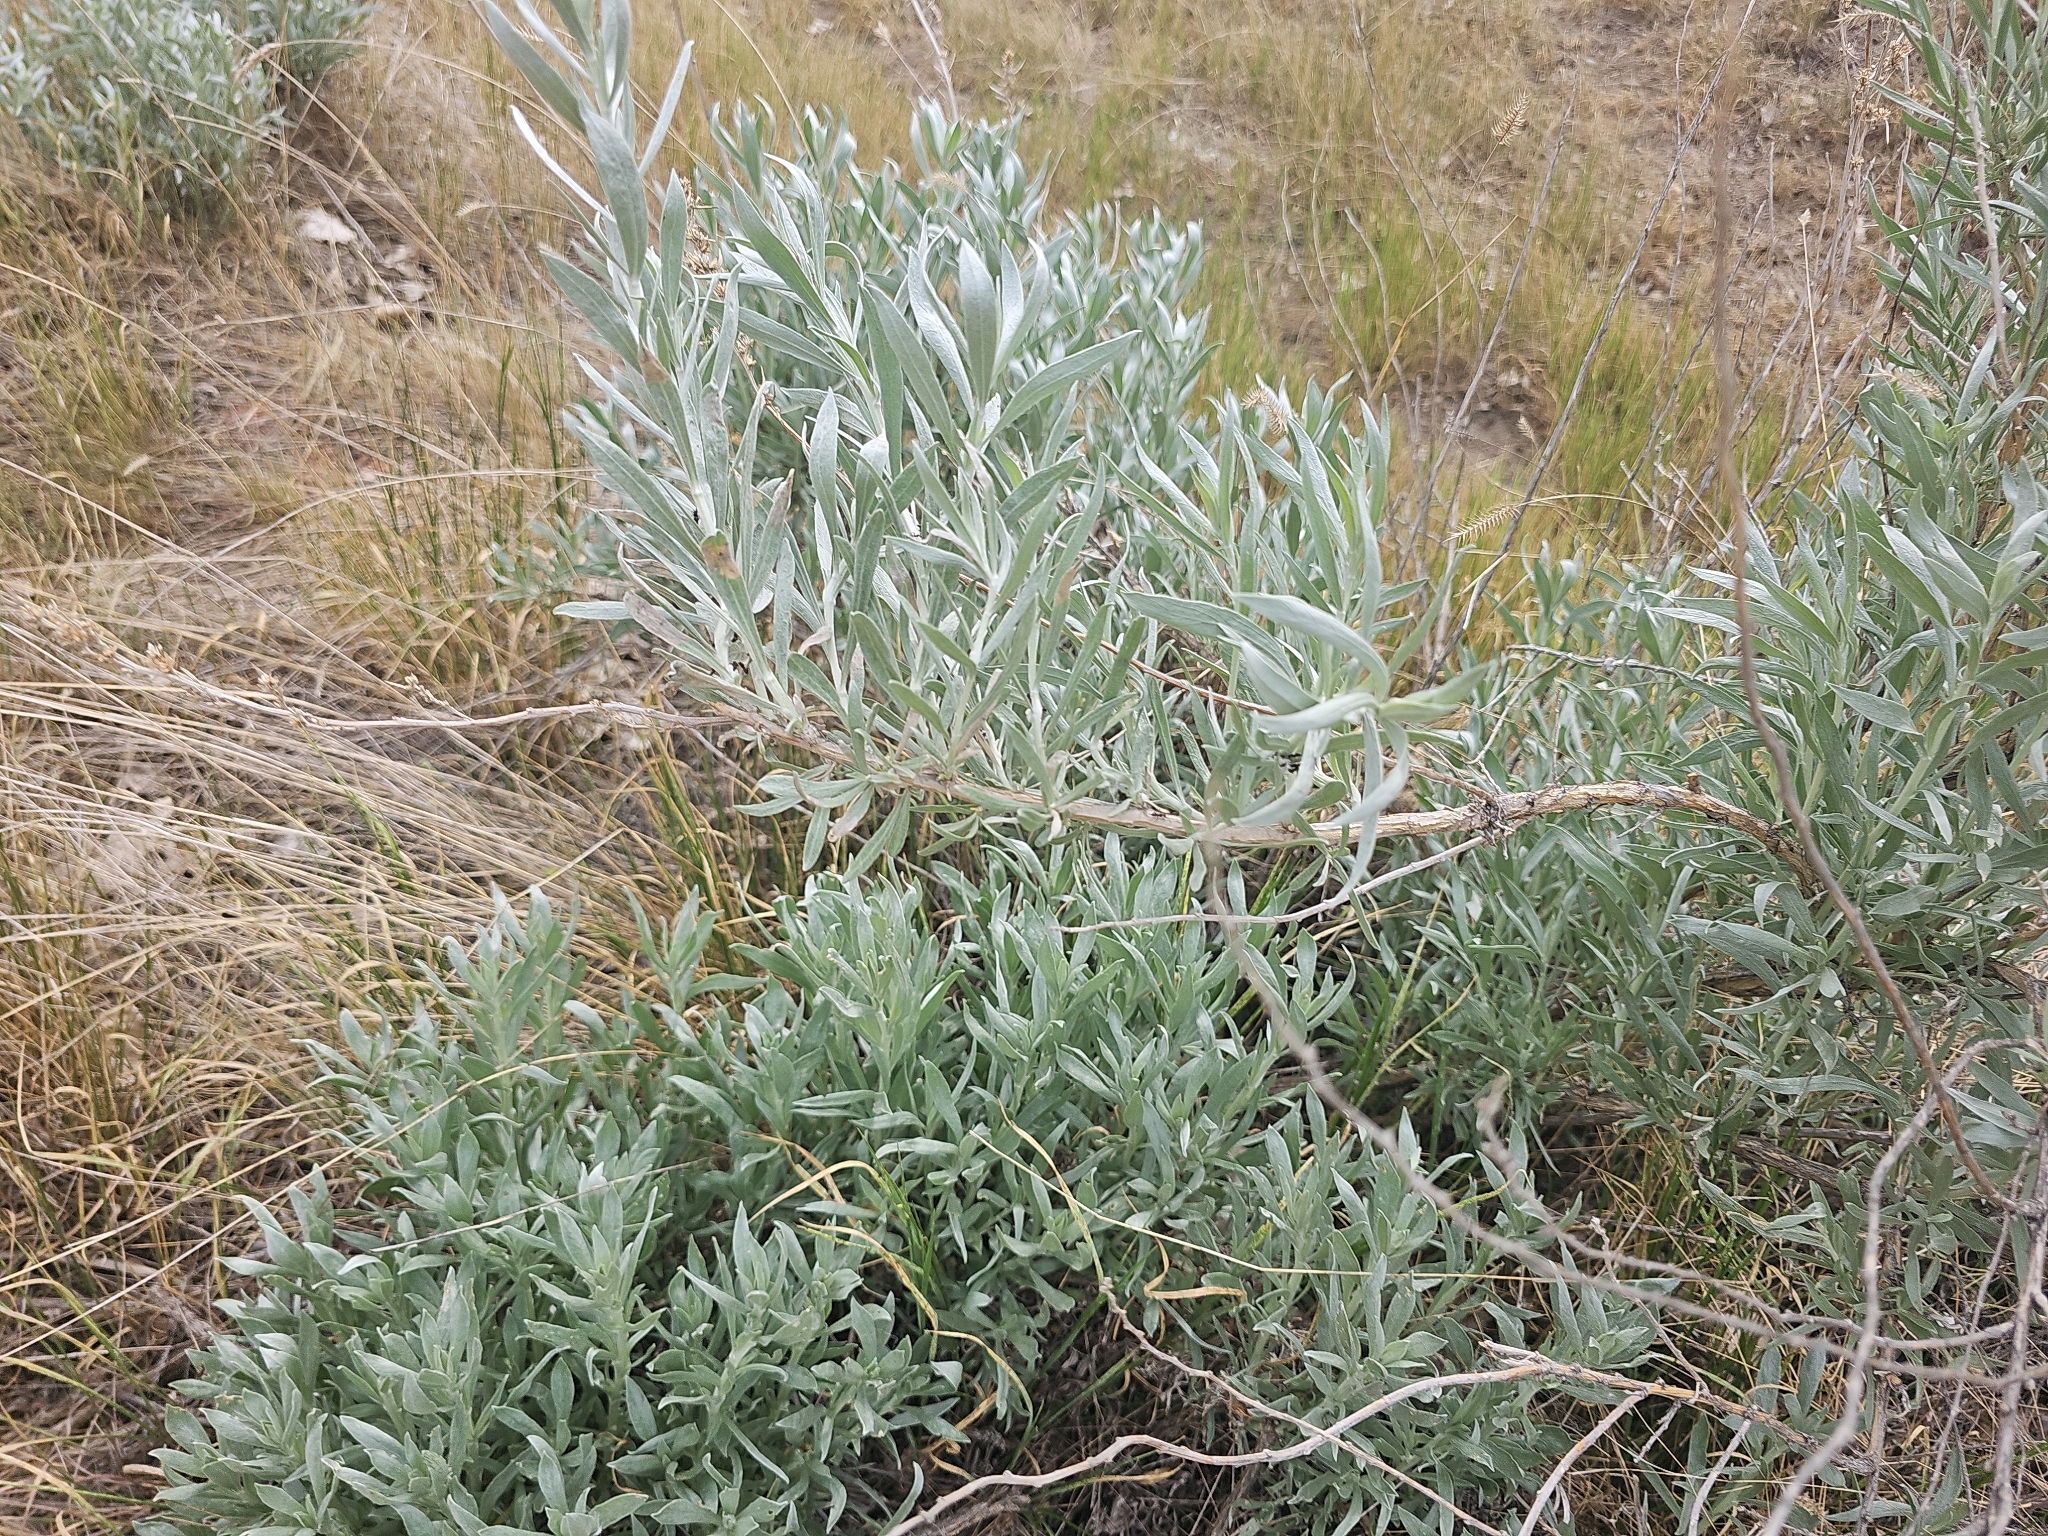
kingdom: Plantae
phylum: Tracheophyta
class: Magnoliopsida
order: Asterales
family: Asteraceae
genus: Artemisia
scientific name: Artemisia cana
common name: Silver sagebrush
